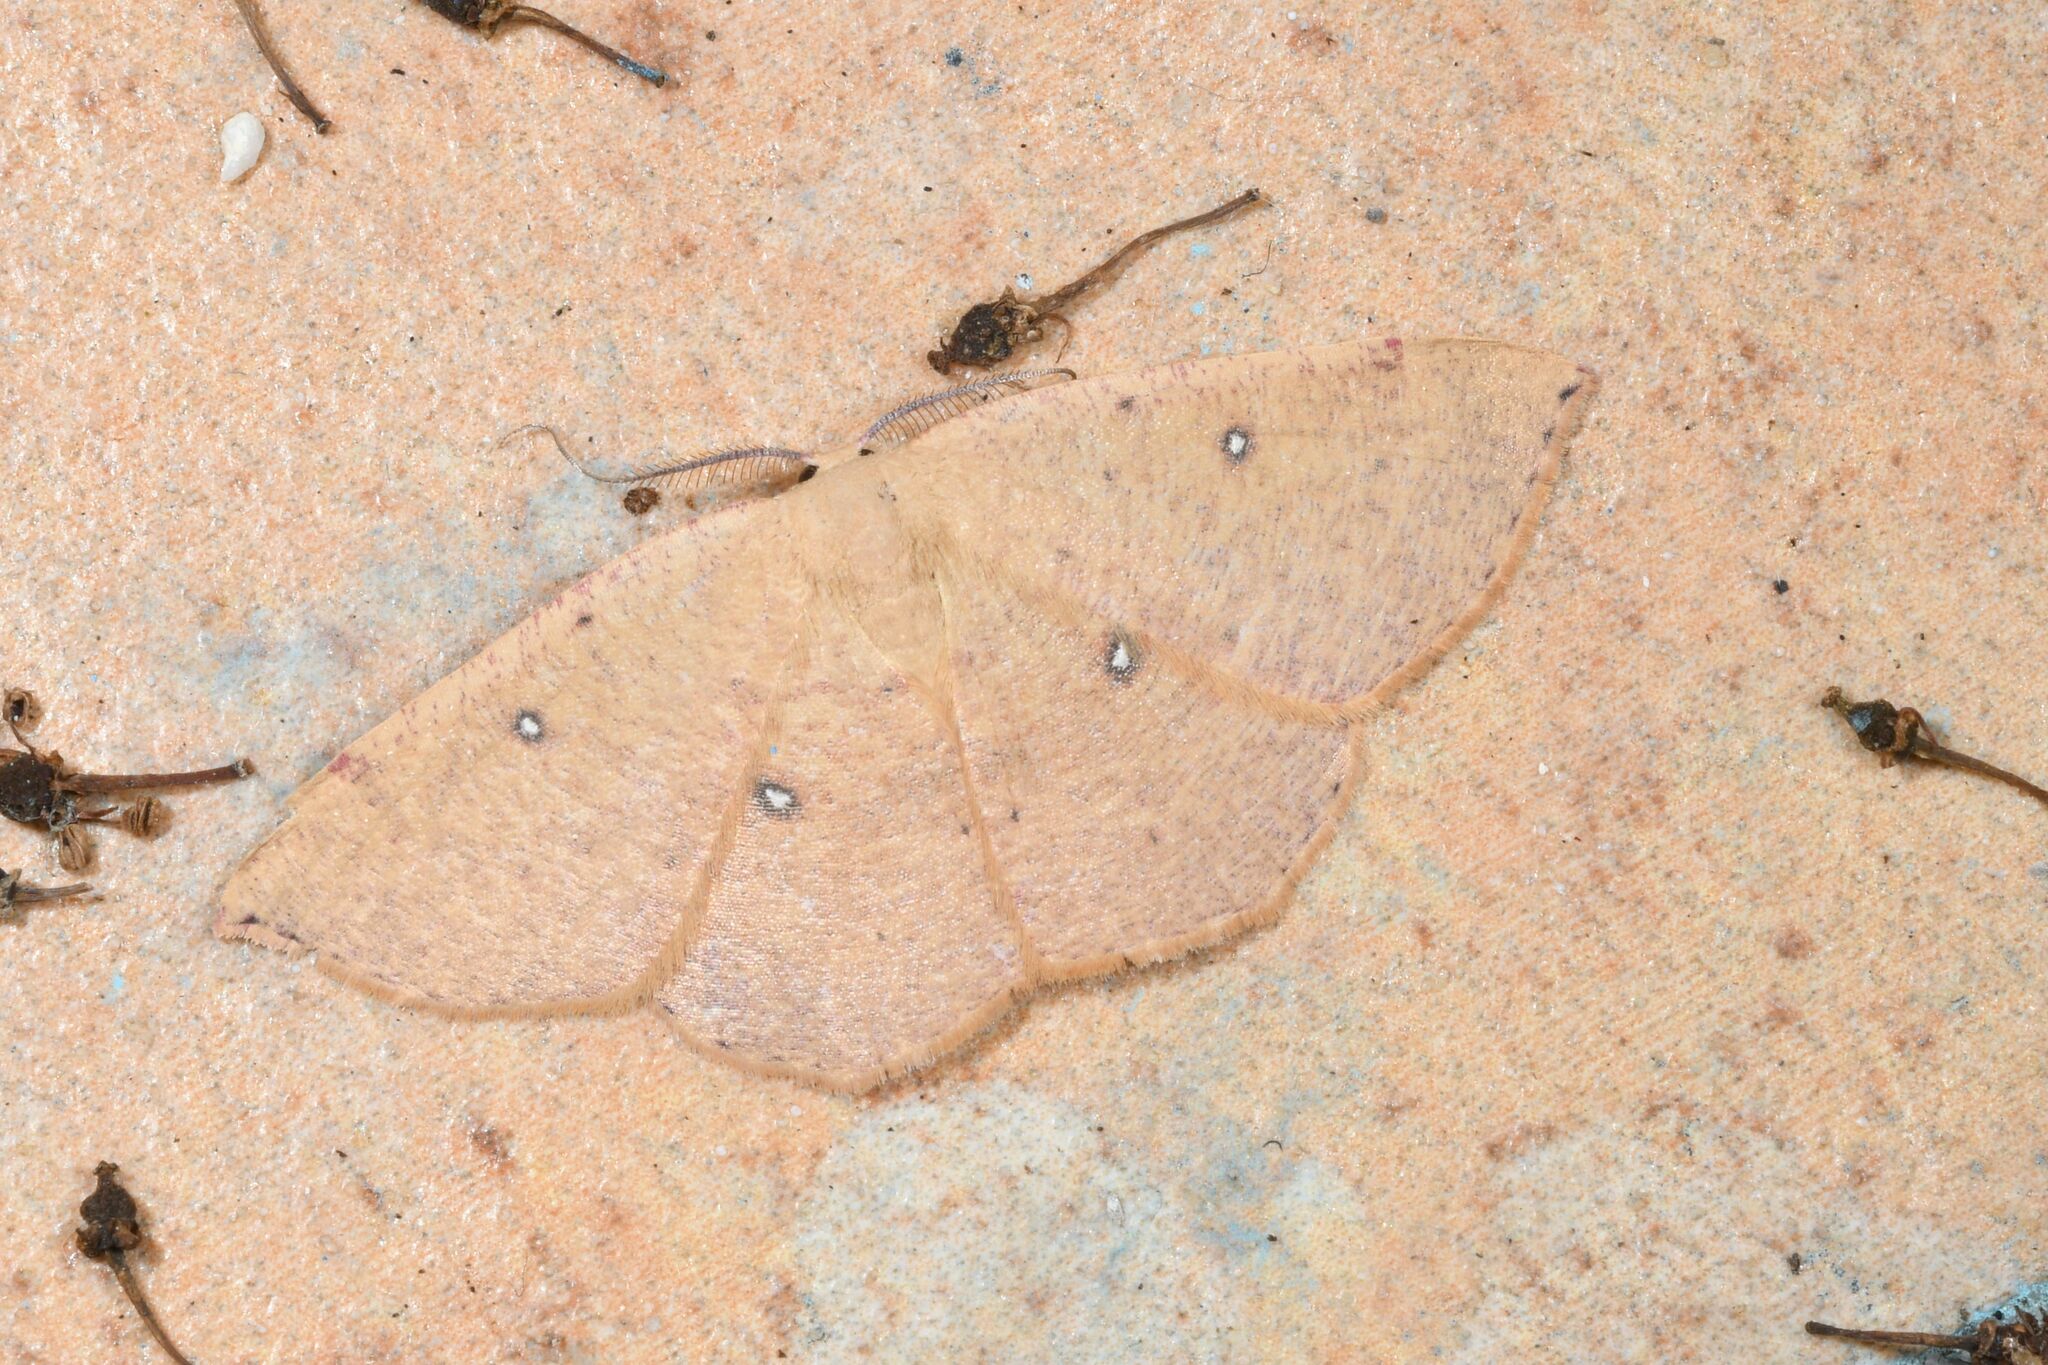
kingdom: Animalia
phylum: Arthropoda
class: Insecta
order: Lepidoptera
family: Geometridae
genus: Cyclophora
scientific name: Cyclophora puppillaria
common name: Blair's mocha
